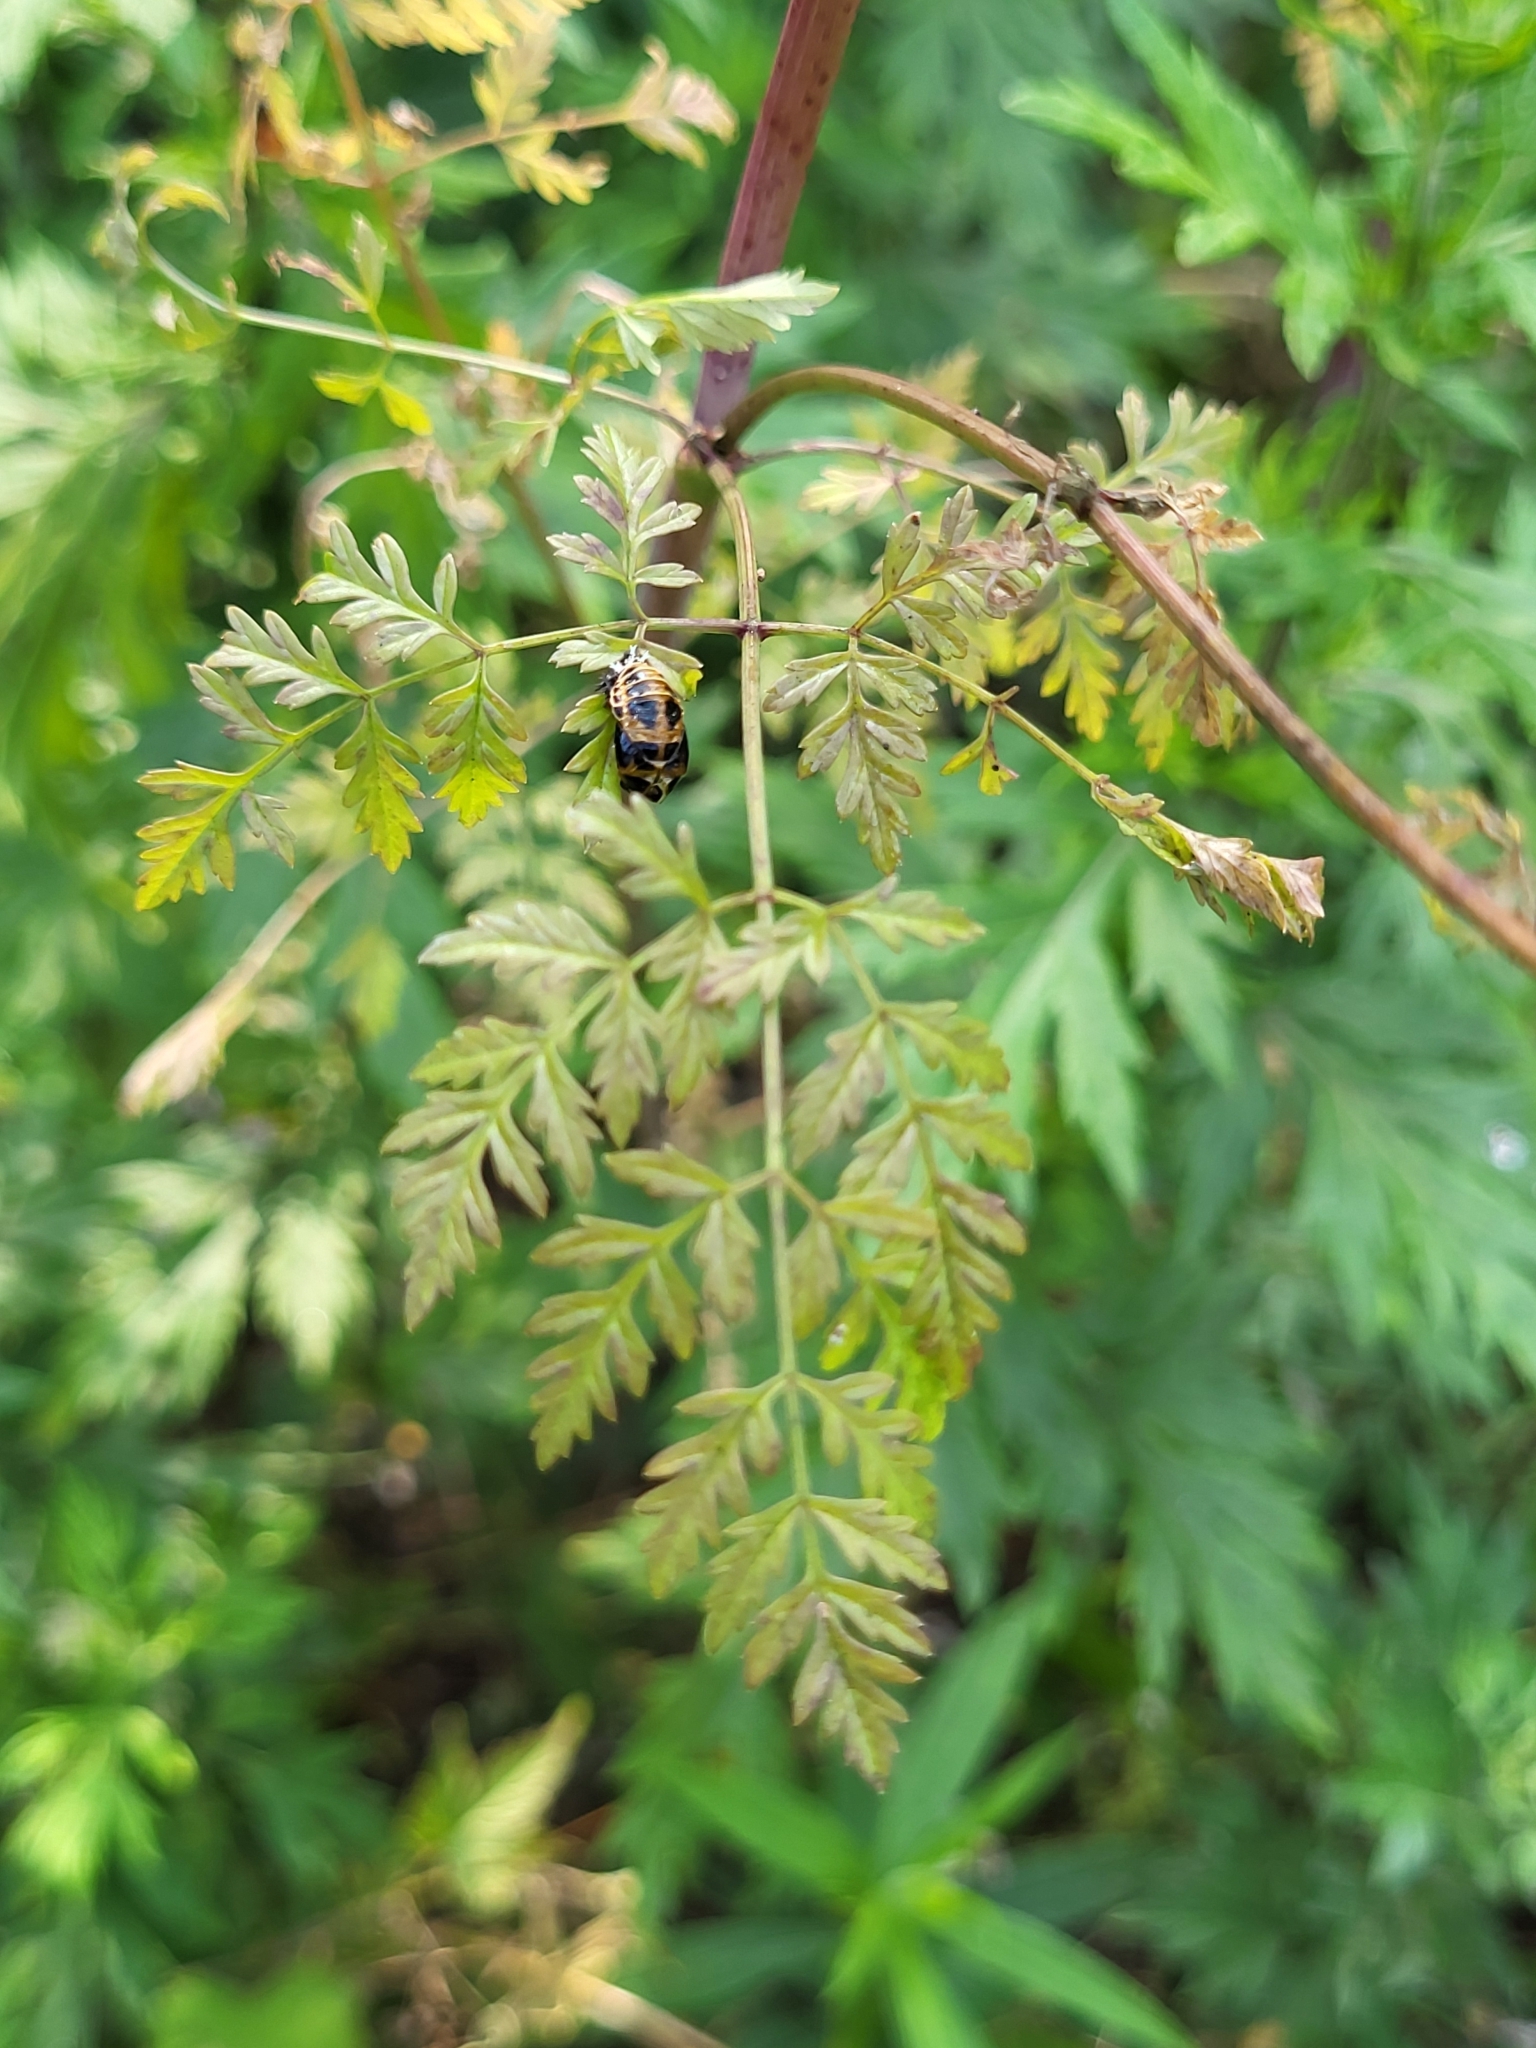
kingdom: Plantae
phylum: Tracheophyta
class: Magnoliopsida
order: Apiales
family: Apiaceae
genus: Conium
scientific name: Conium maculatum
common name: Hemlock
